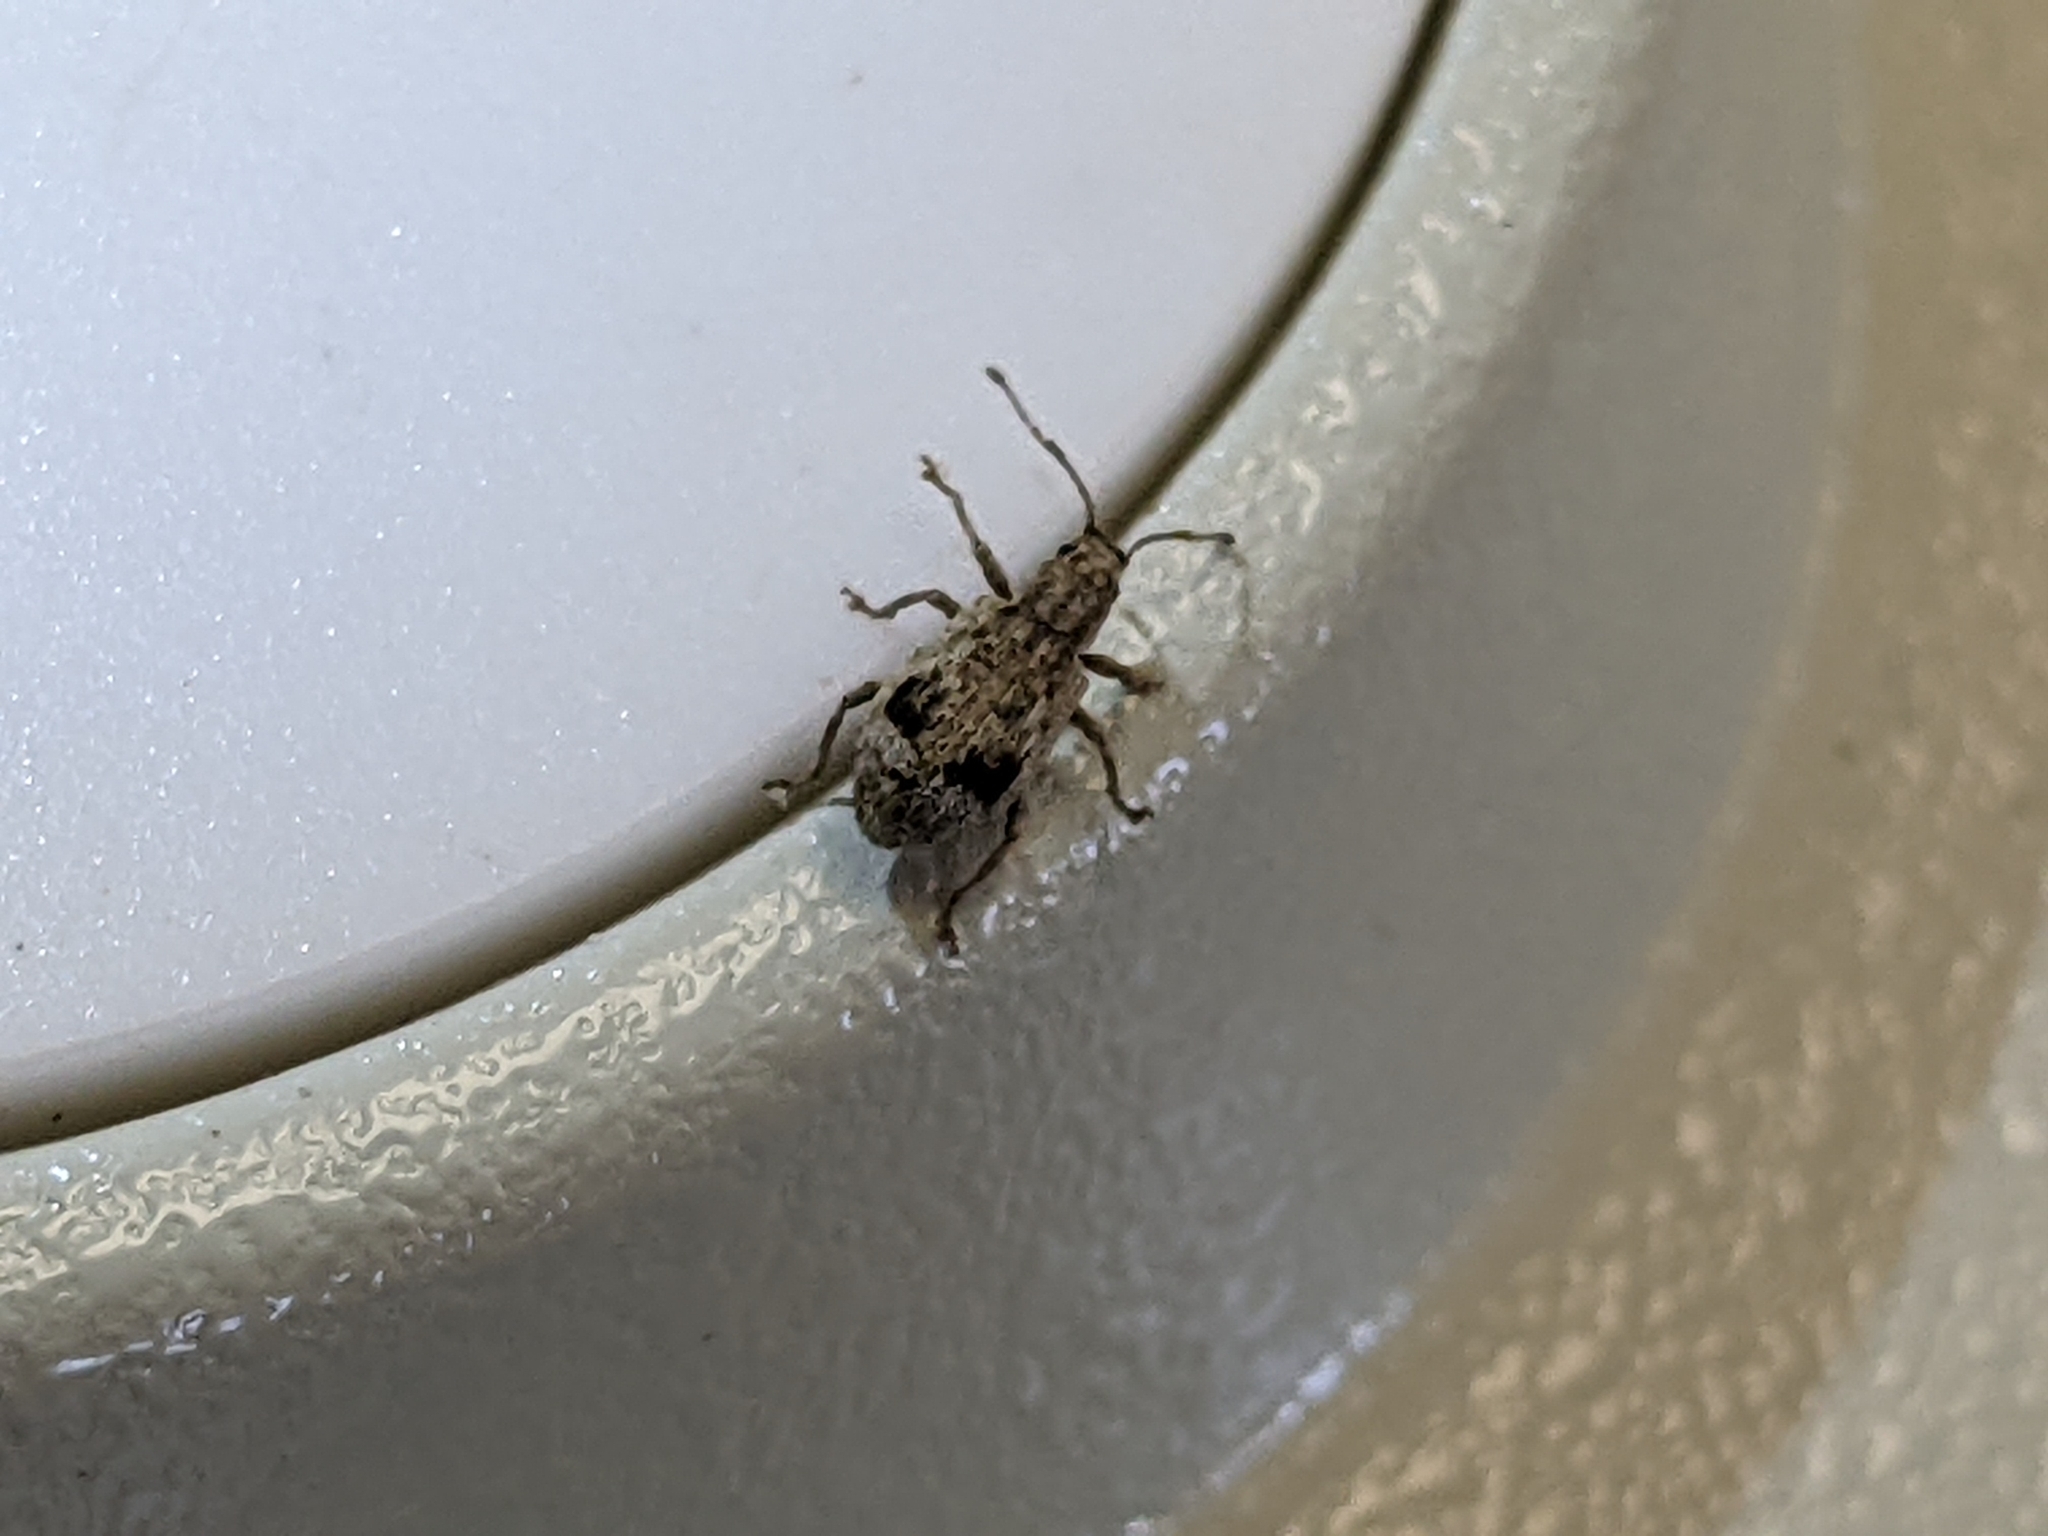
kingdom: Animalia
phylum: Arthropoda
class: Insecta
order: Coleoptera
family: Curculionidae
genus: Pseudoedophrys
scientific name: Pseudoedophrys hilleri
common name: Weevil
